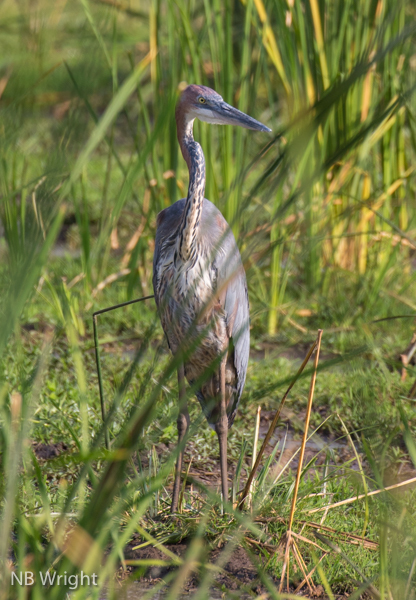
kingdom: Animalia
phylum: Chordata
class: Aves
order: Pelecaniformes
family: Ardeidae
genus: Ardea
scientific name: Ardea goliath
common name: Goliath heron
